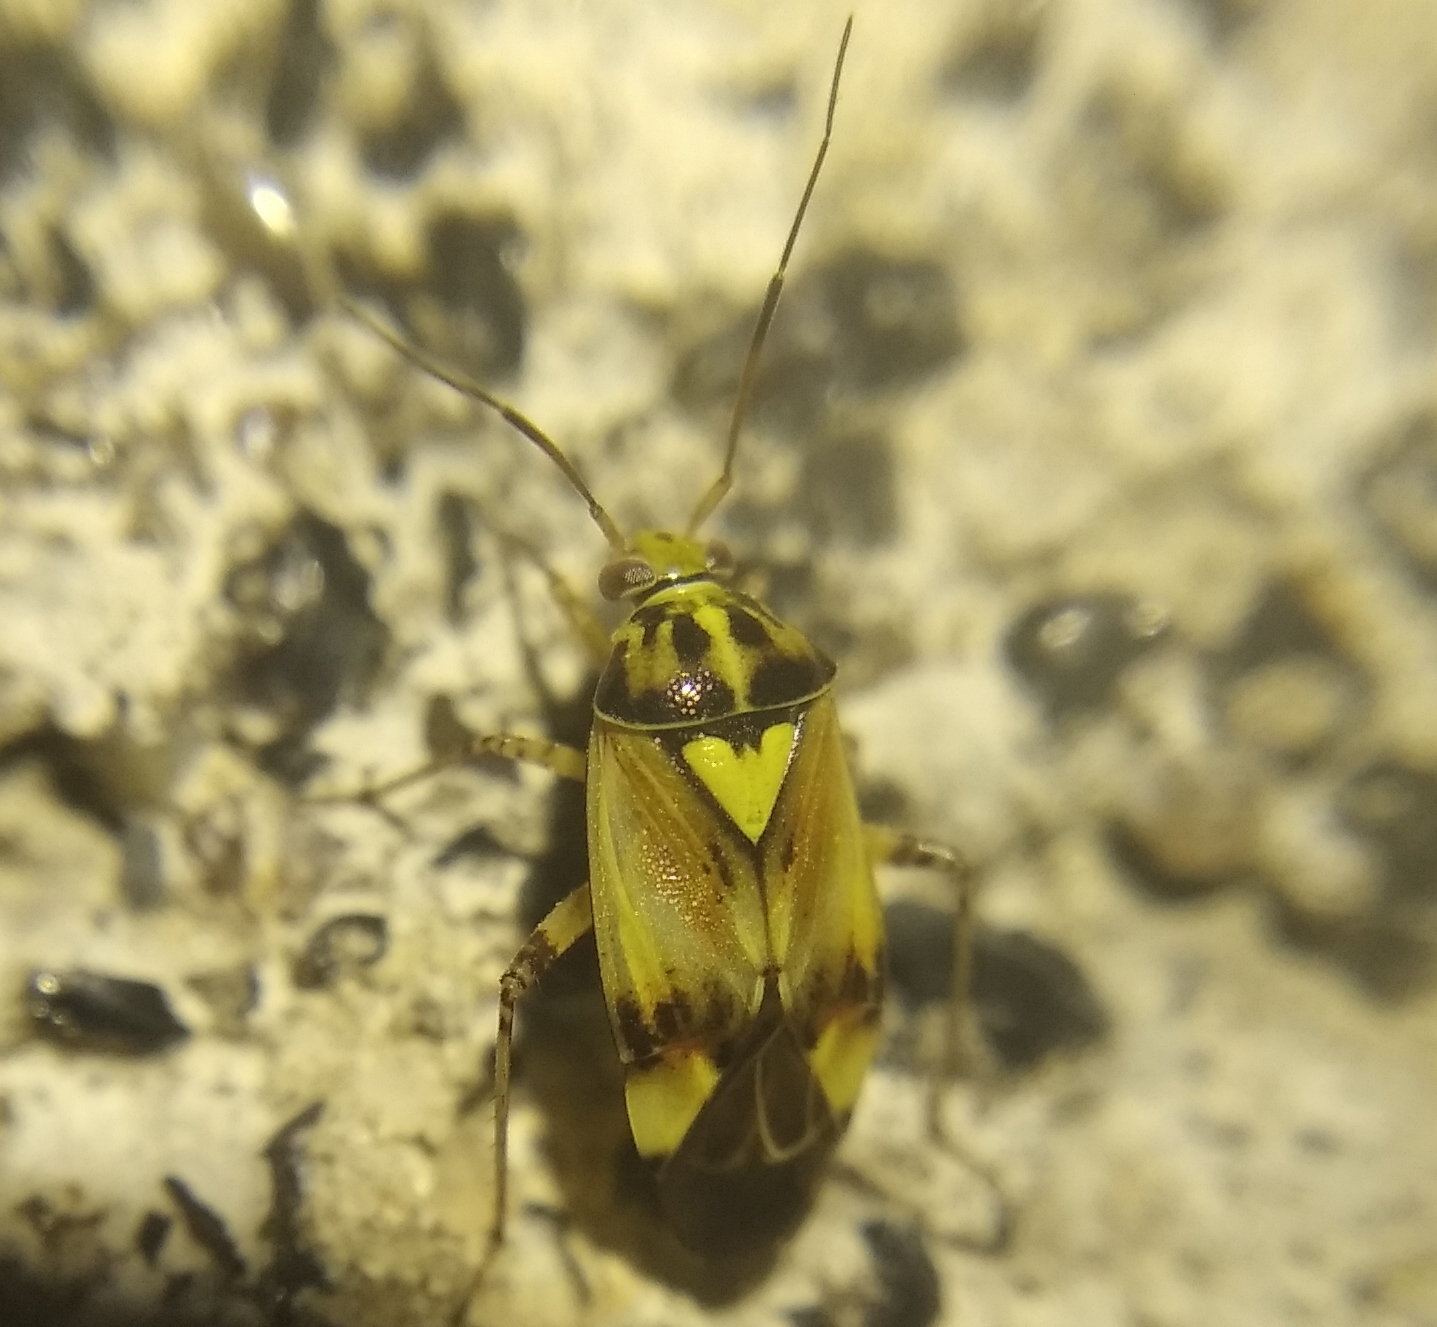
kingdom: Animalia
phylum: Arthropoda
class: Insecta
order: Hemiptera
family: Miridae
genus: Lygus
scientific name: Lygus pratensis
